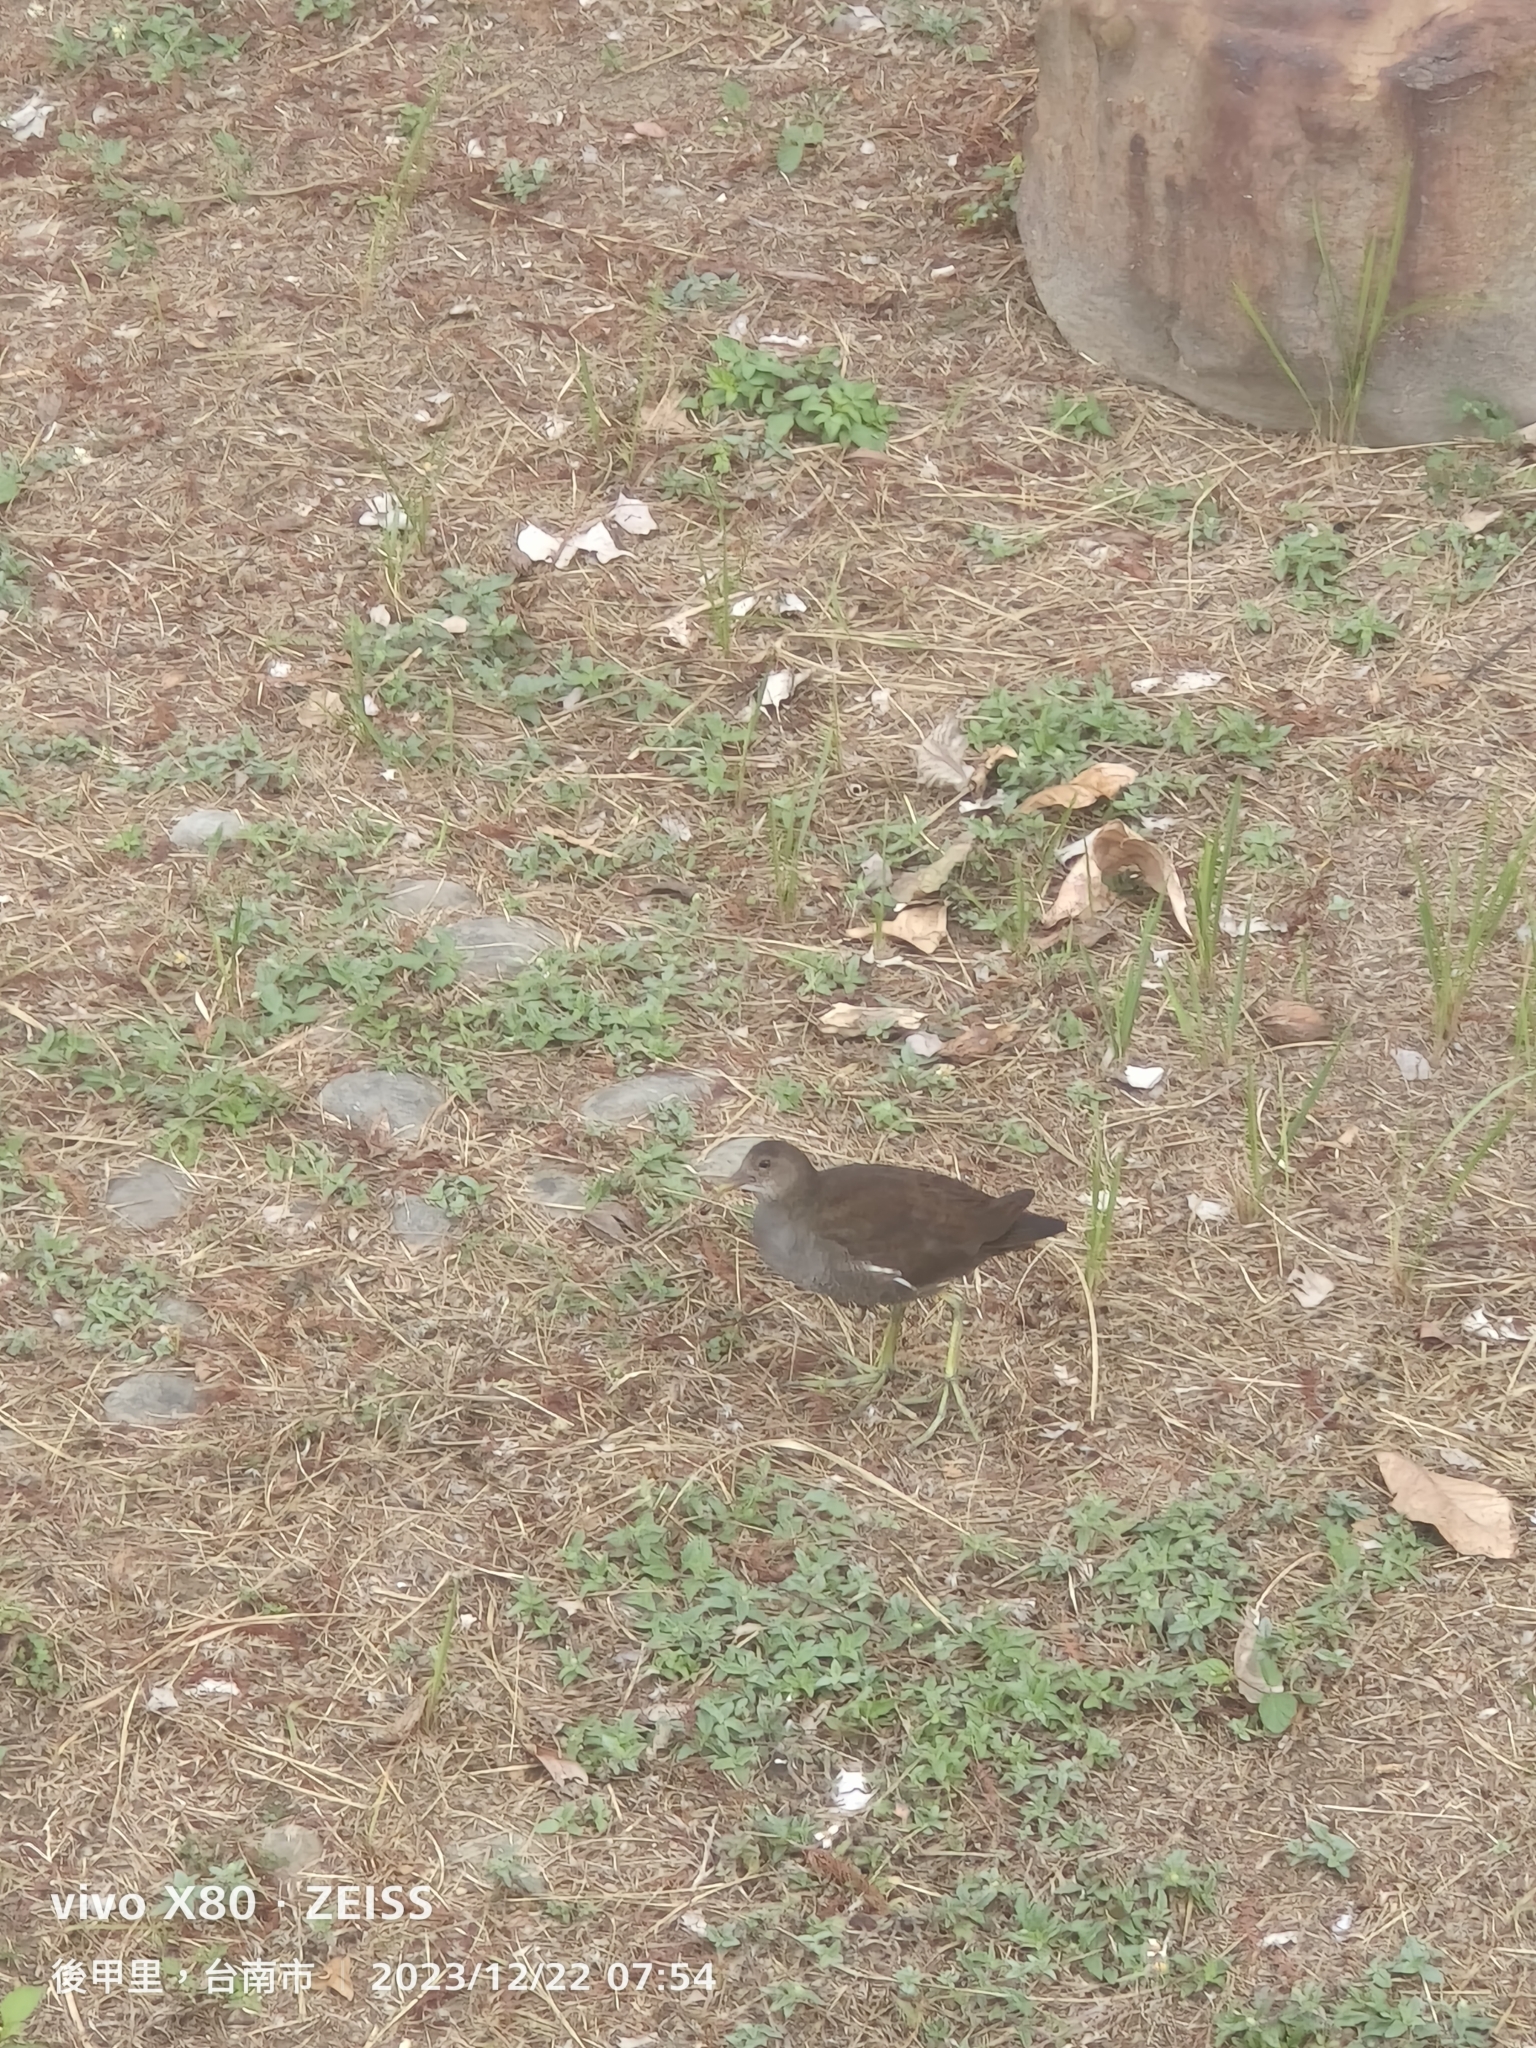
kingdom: Animalia
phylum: Chordata
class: Aves
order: Gruiformes
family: Rallidae
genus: Gallinula
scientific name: Gallinula chloropus
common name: Common moorhen
